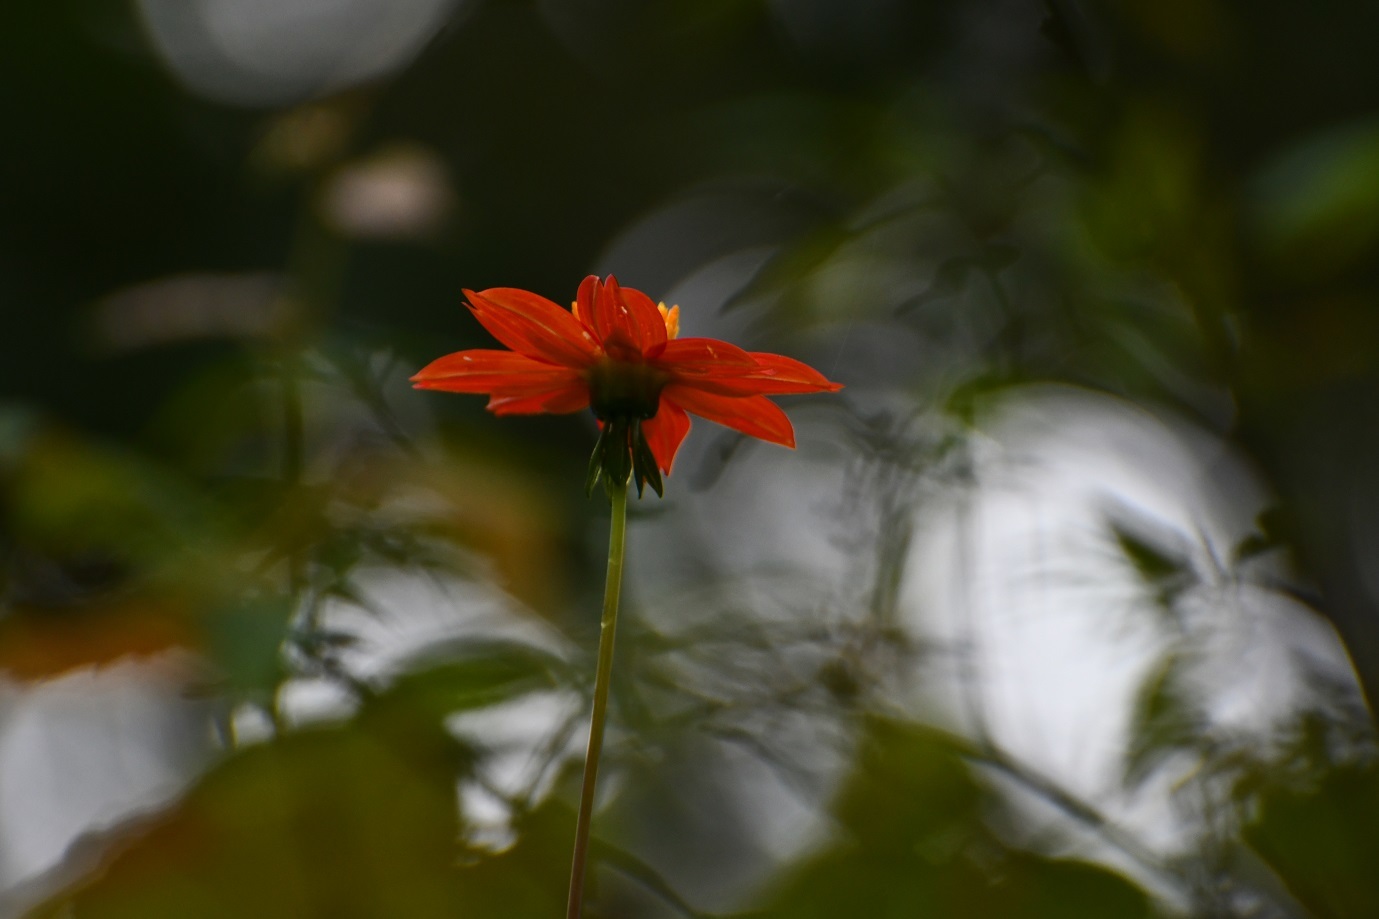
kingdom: Plantae
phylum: Tracheophyta
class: Magnoliopsida
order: Asterales
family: Asteraceae
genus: Dahlia
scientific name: Dahlia coccinea
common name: Red dahlia
